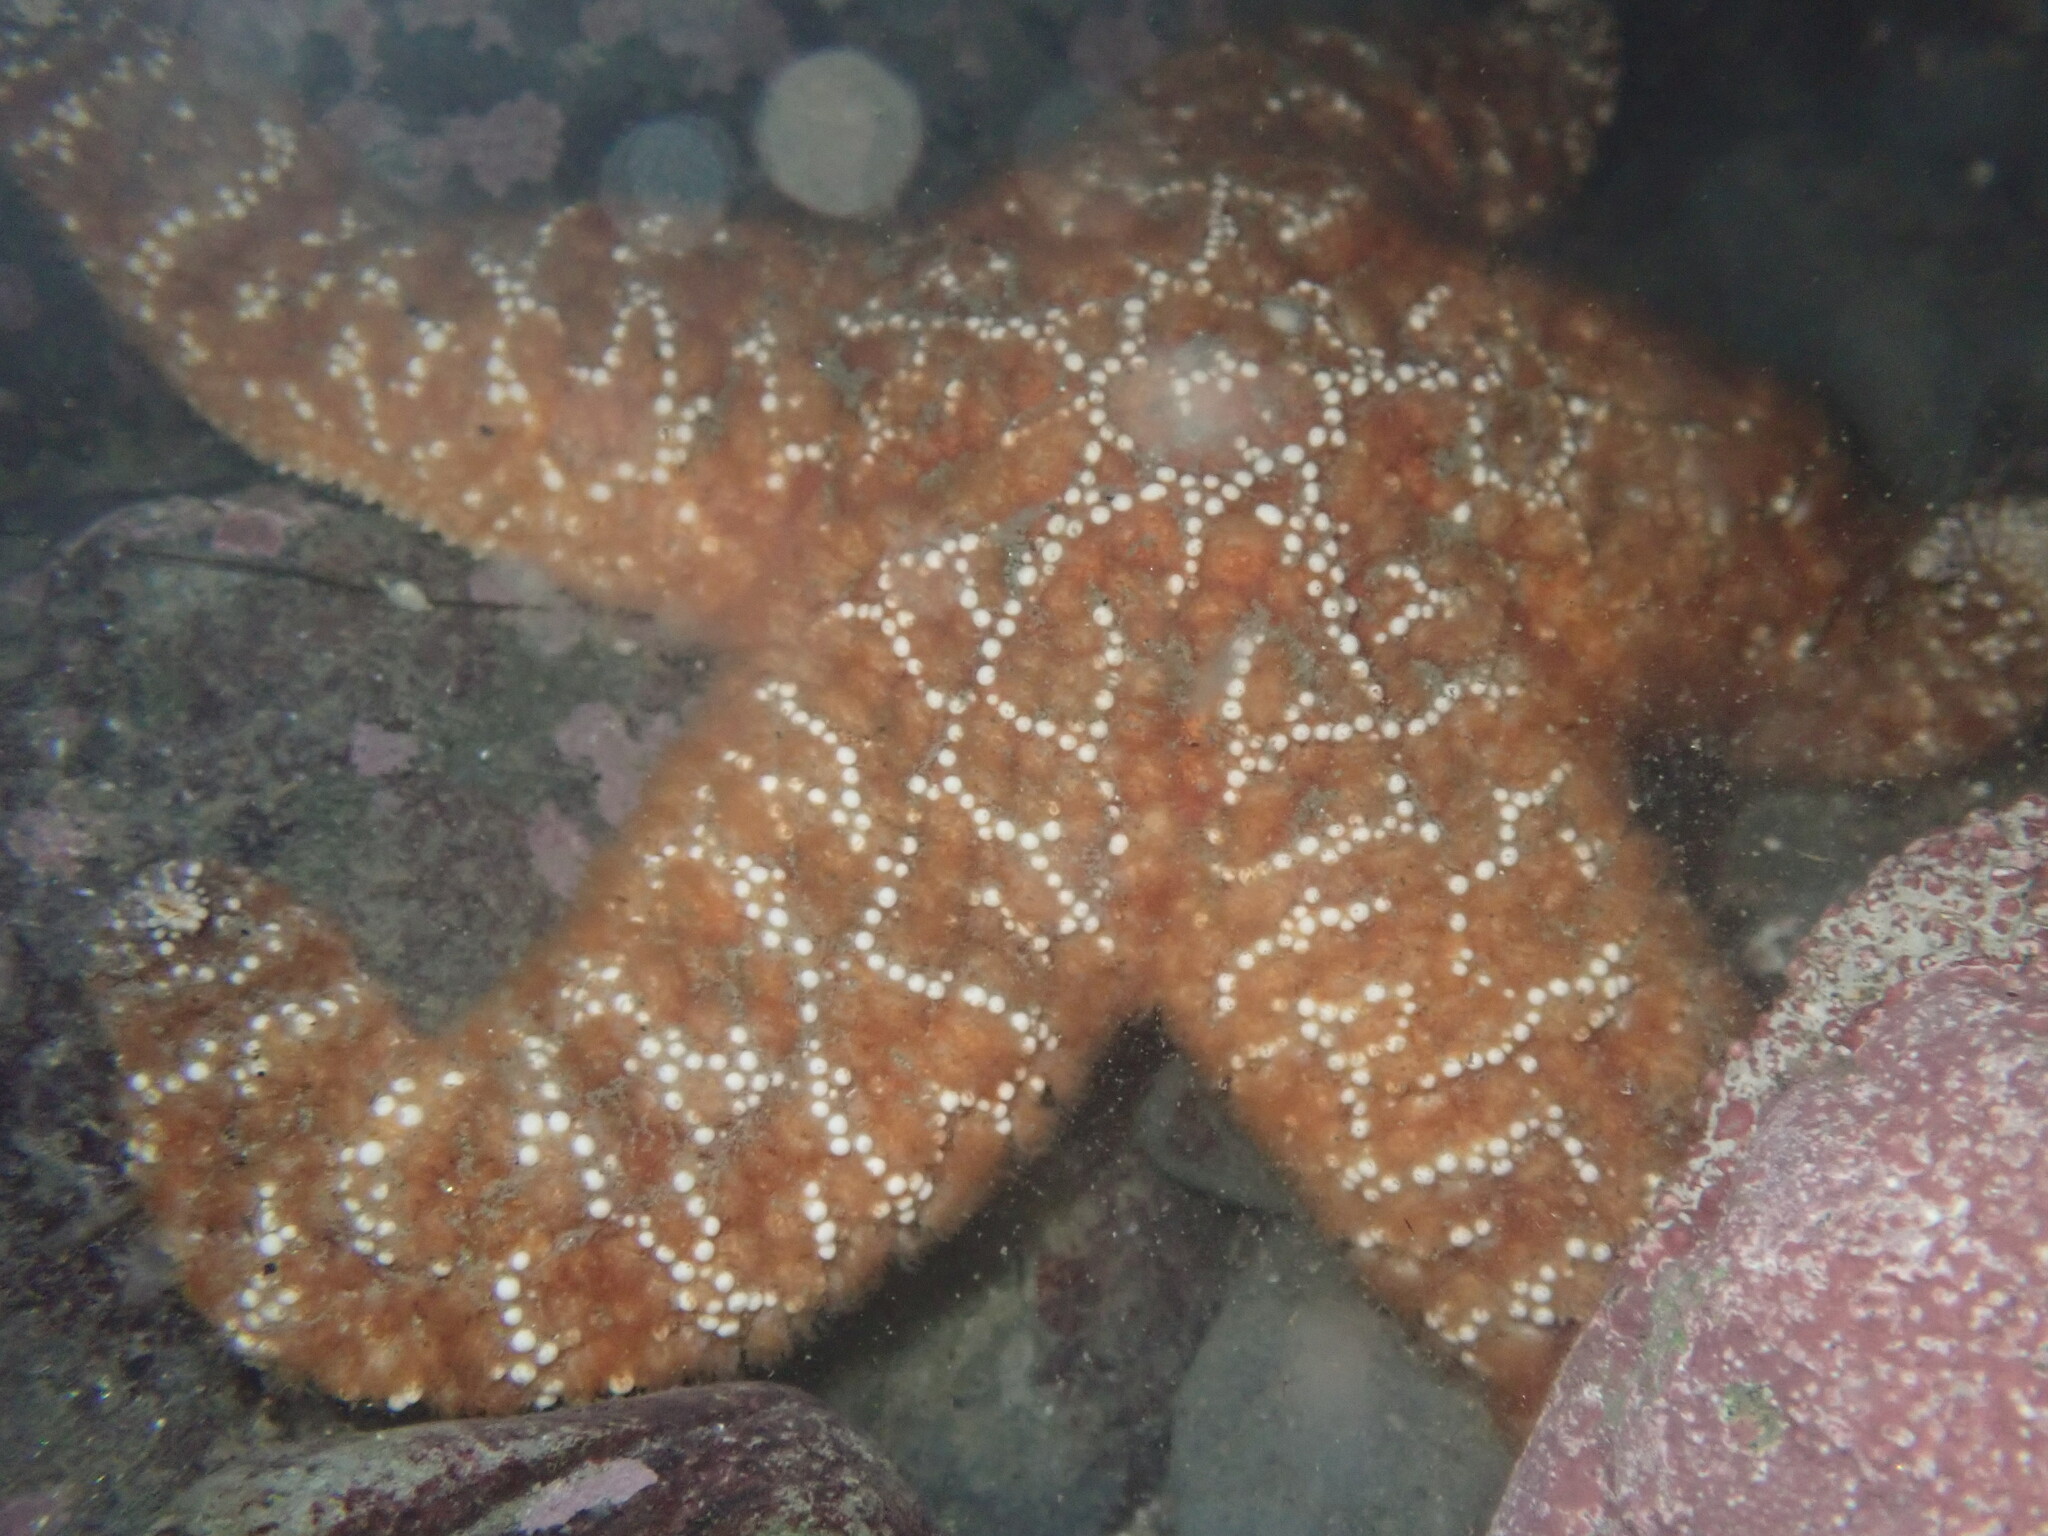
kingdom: Animalia
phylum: Echinodermata
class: Asteroidea
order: Forcipulatida
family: Asteriidae
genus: Pisaster
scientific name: Pisaster ochraceus
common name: Ochre stars
